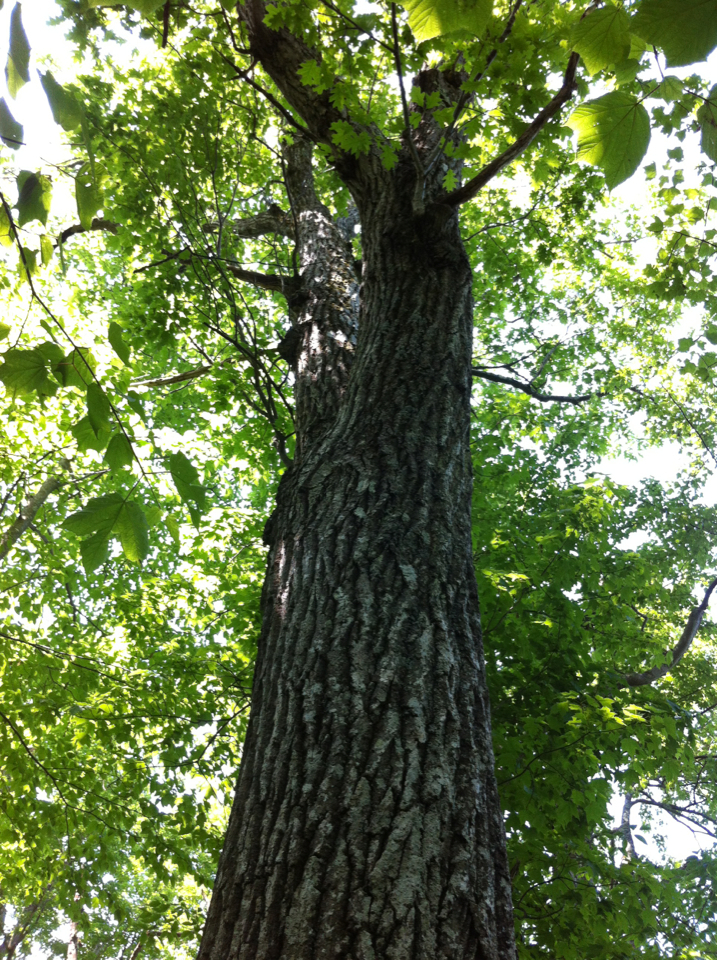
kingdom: Plantae
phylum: Tracheophyta
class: Magnoliopsida
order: Fagales
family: Fagaceae
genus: Quercus
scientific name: Quercus rubra
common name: Red oak
